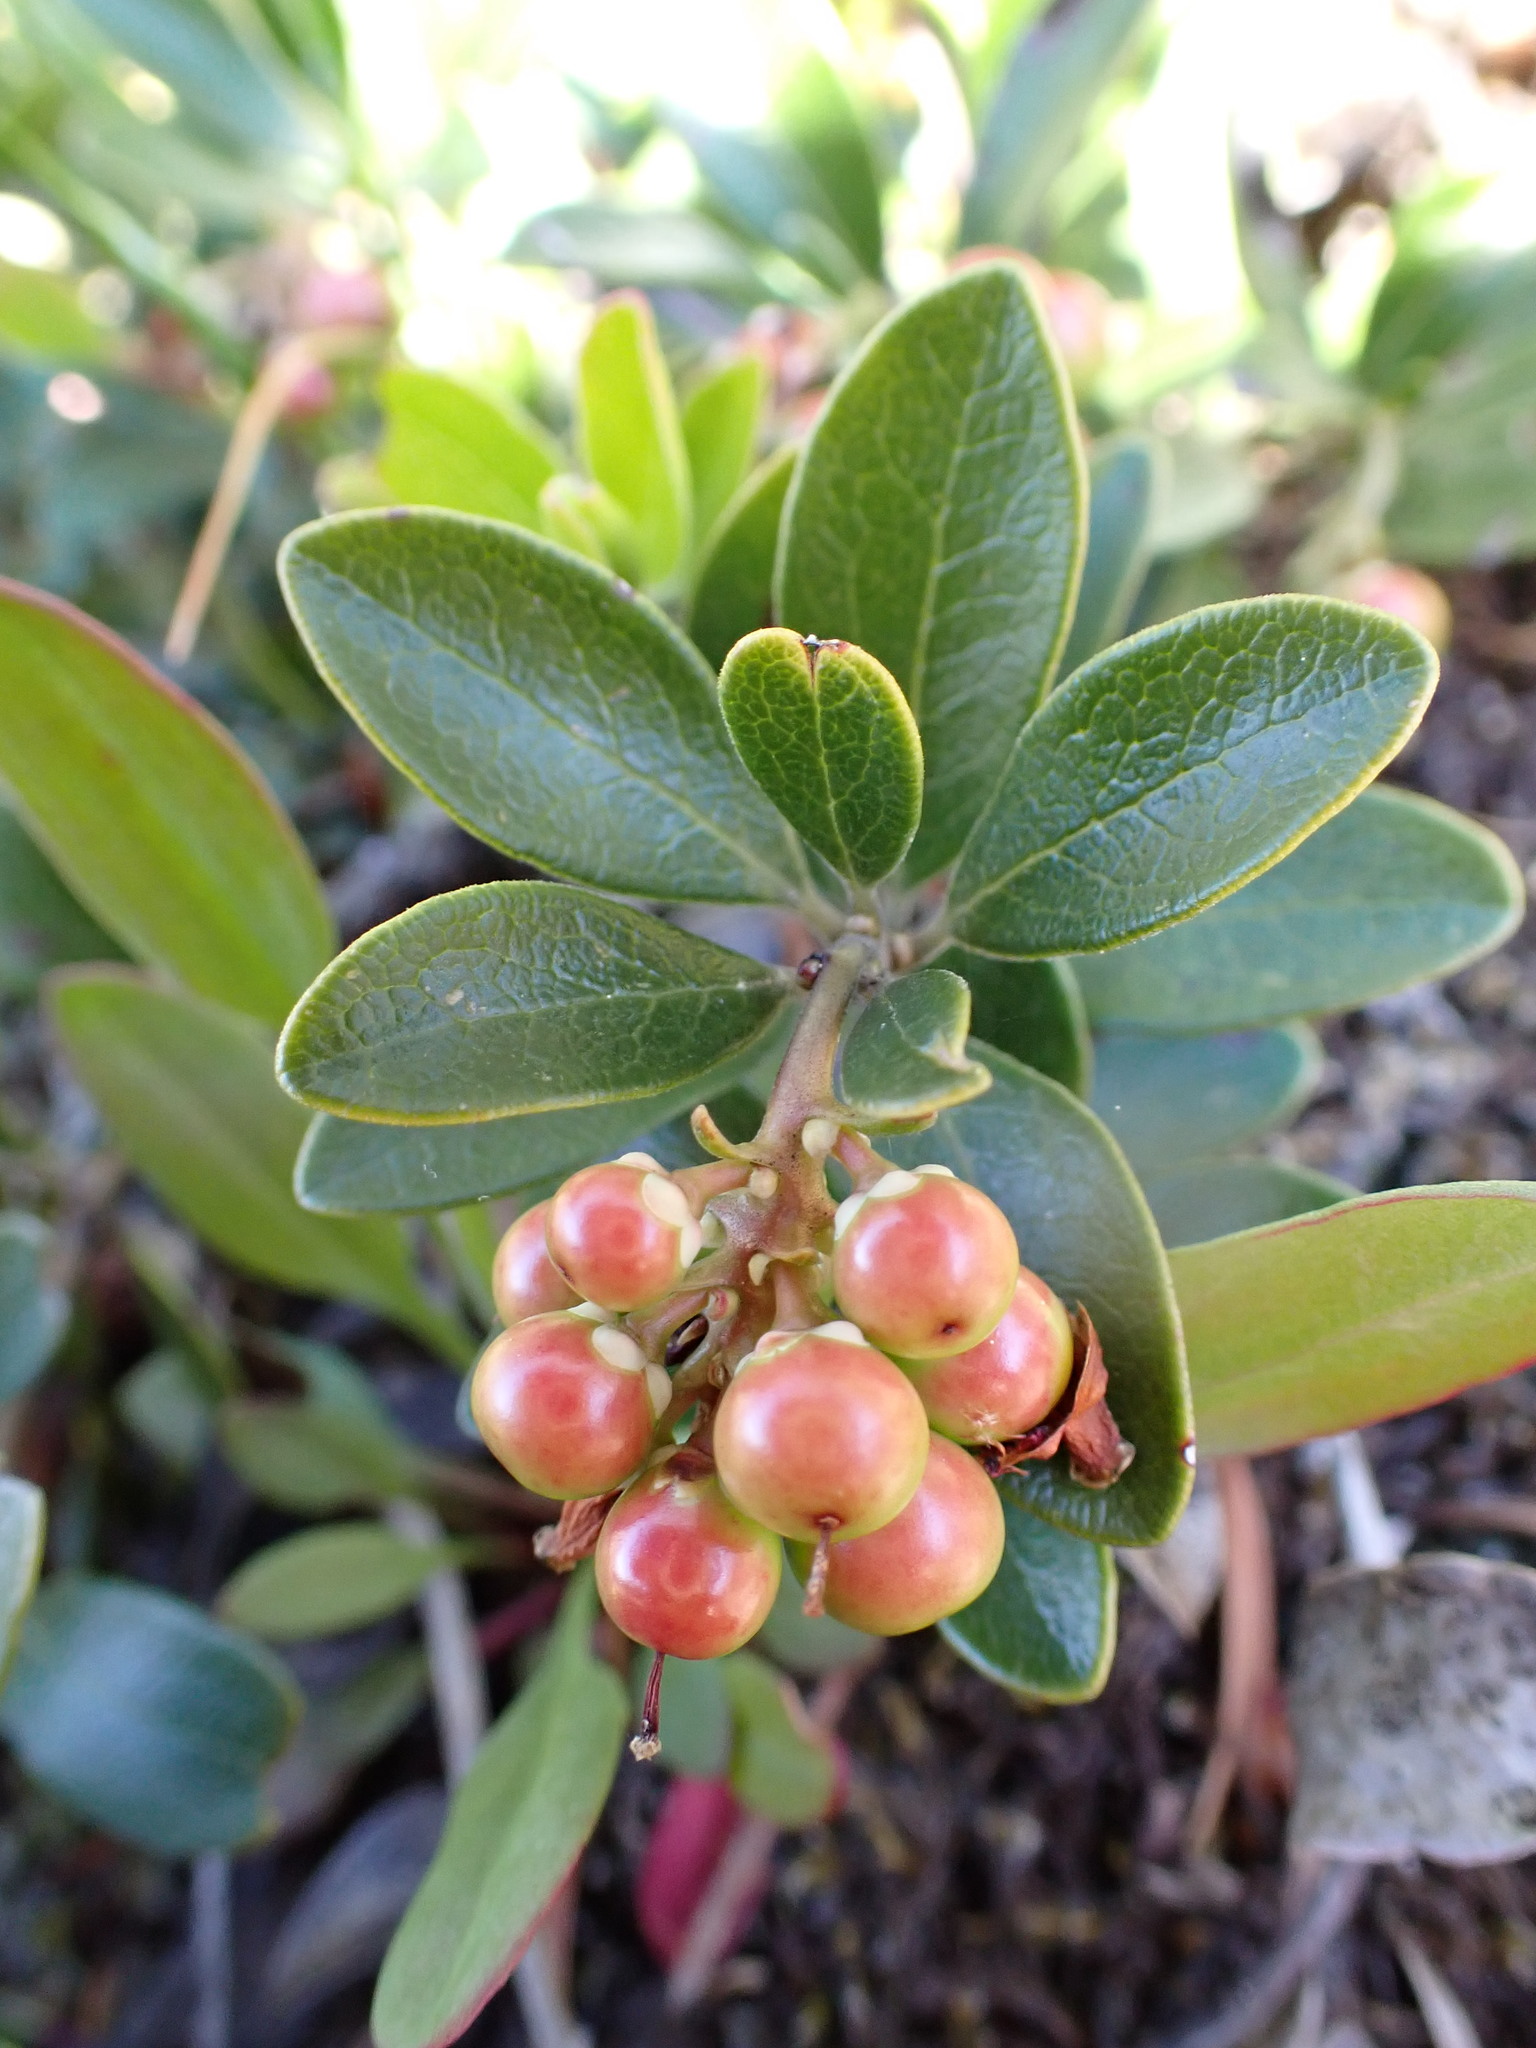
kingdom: Plantae
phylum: Tracheophyta
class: Magnoliopsida
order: Ericales
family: Ericaceae
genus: Arctostaphylos
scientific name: Arctostaphylos uva-ursi
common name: Bearberry
